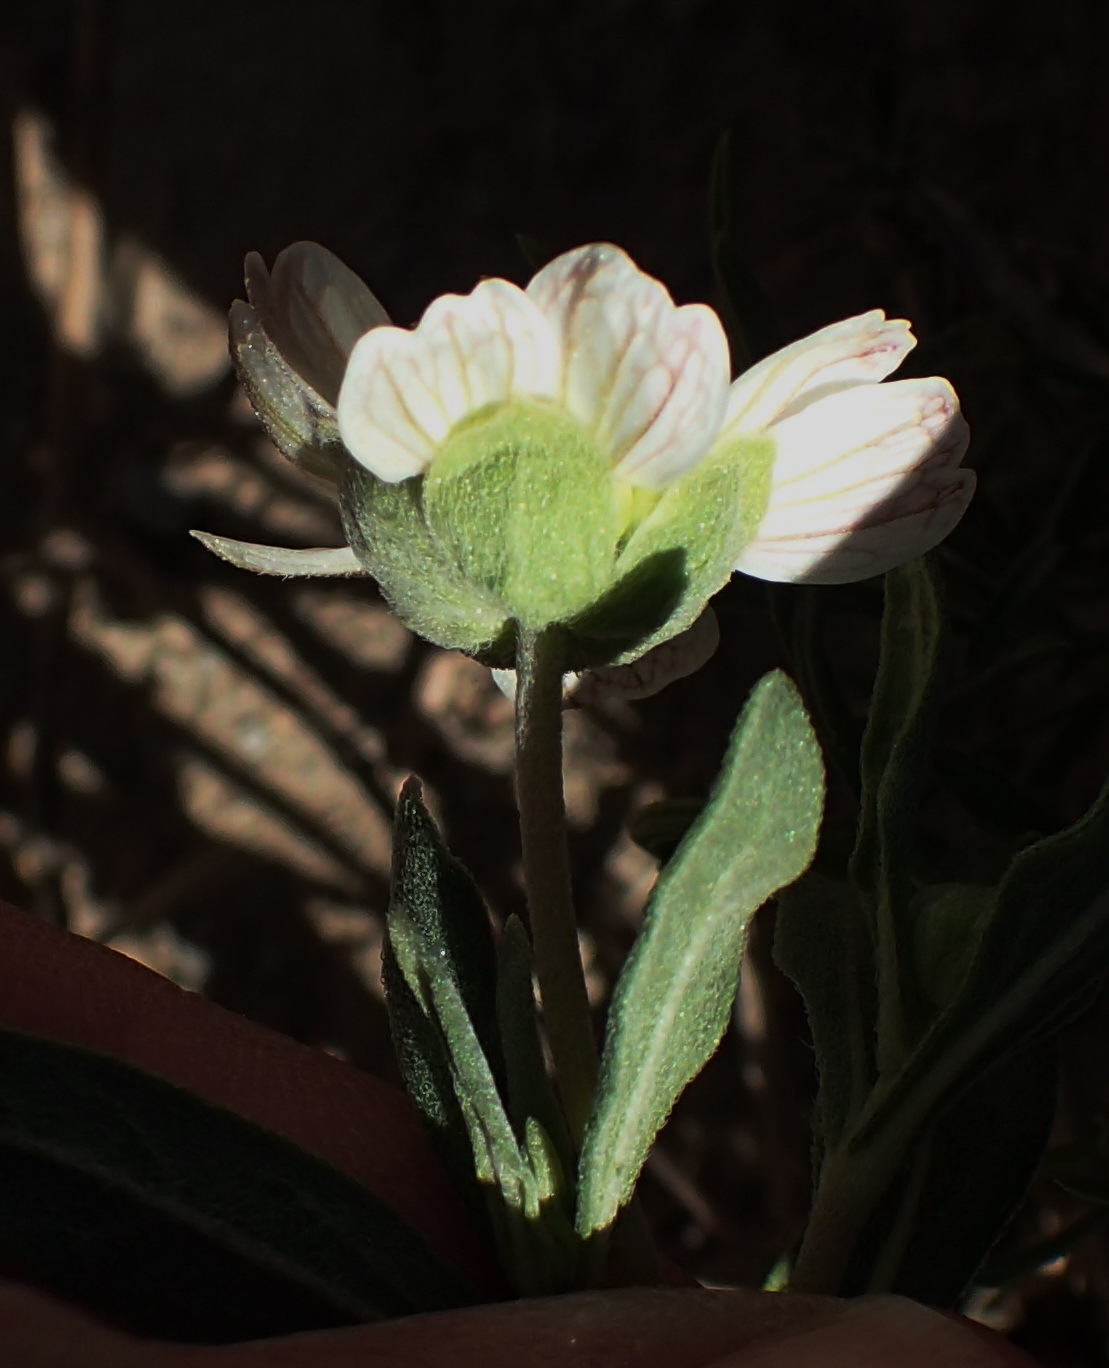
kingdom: Plantae
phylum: Tracheophyta
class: Magnoliopsida
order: Asterales
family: Asteraceae
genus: Melampodium
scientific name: Melampodium leucanthum
